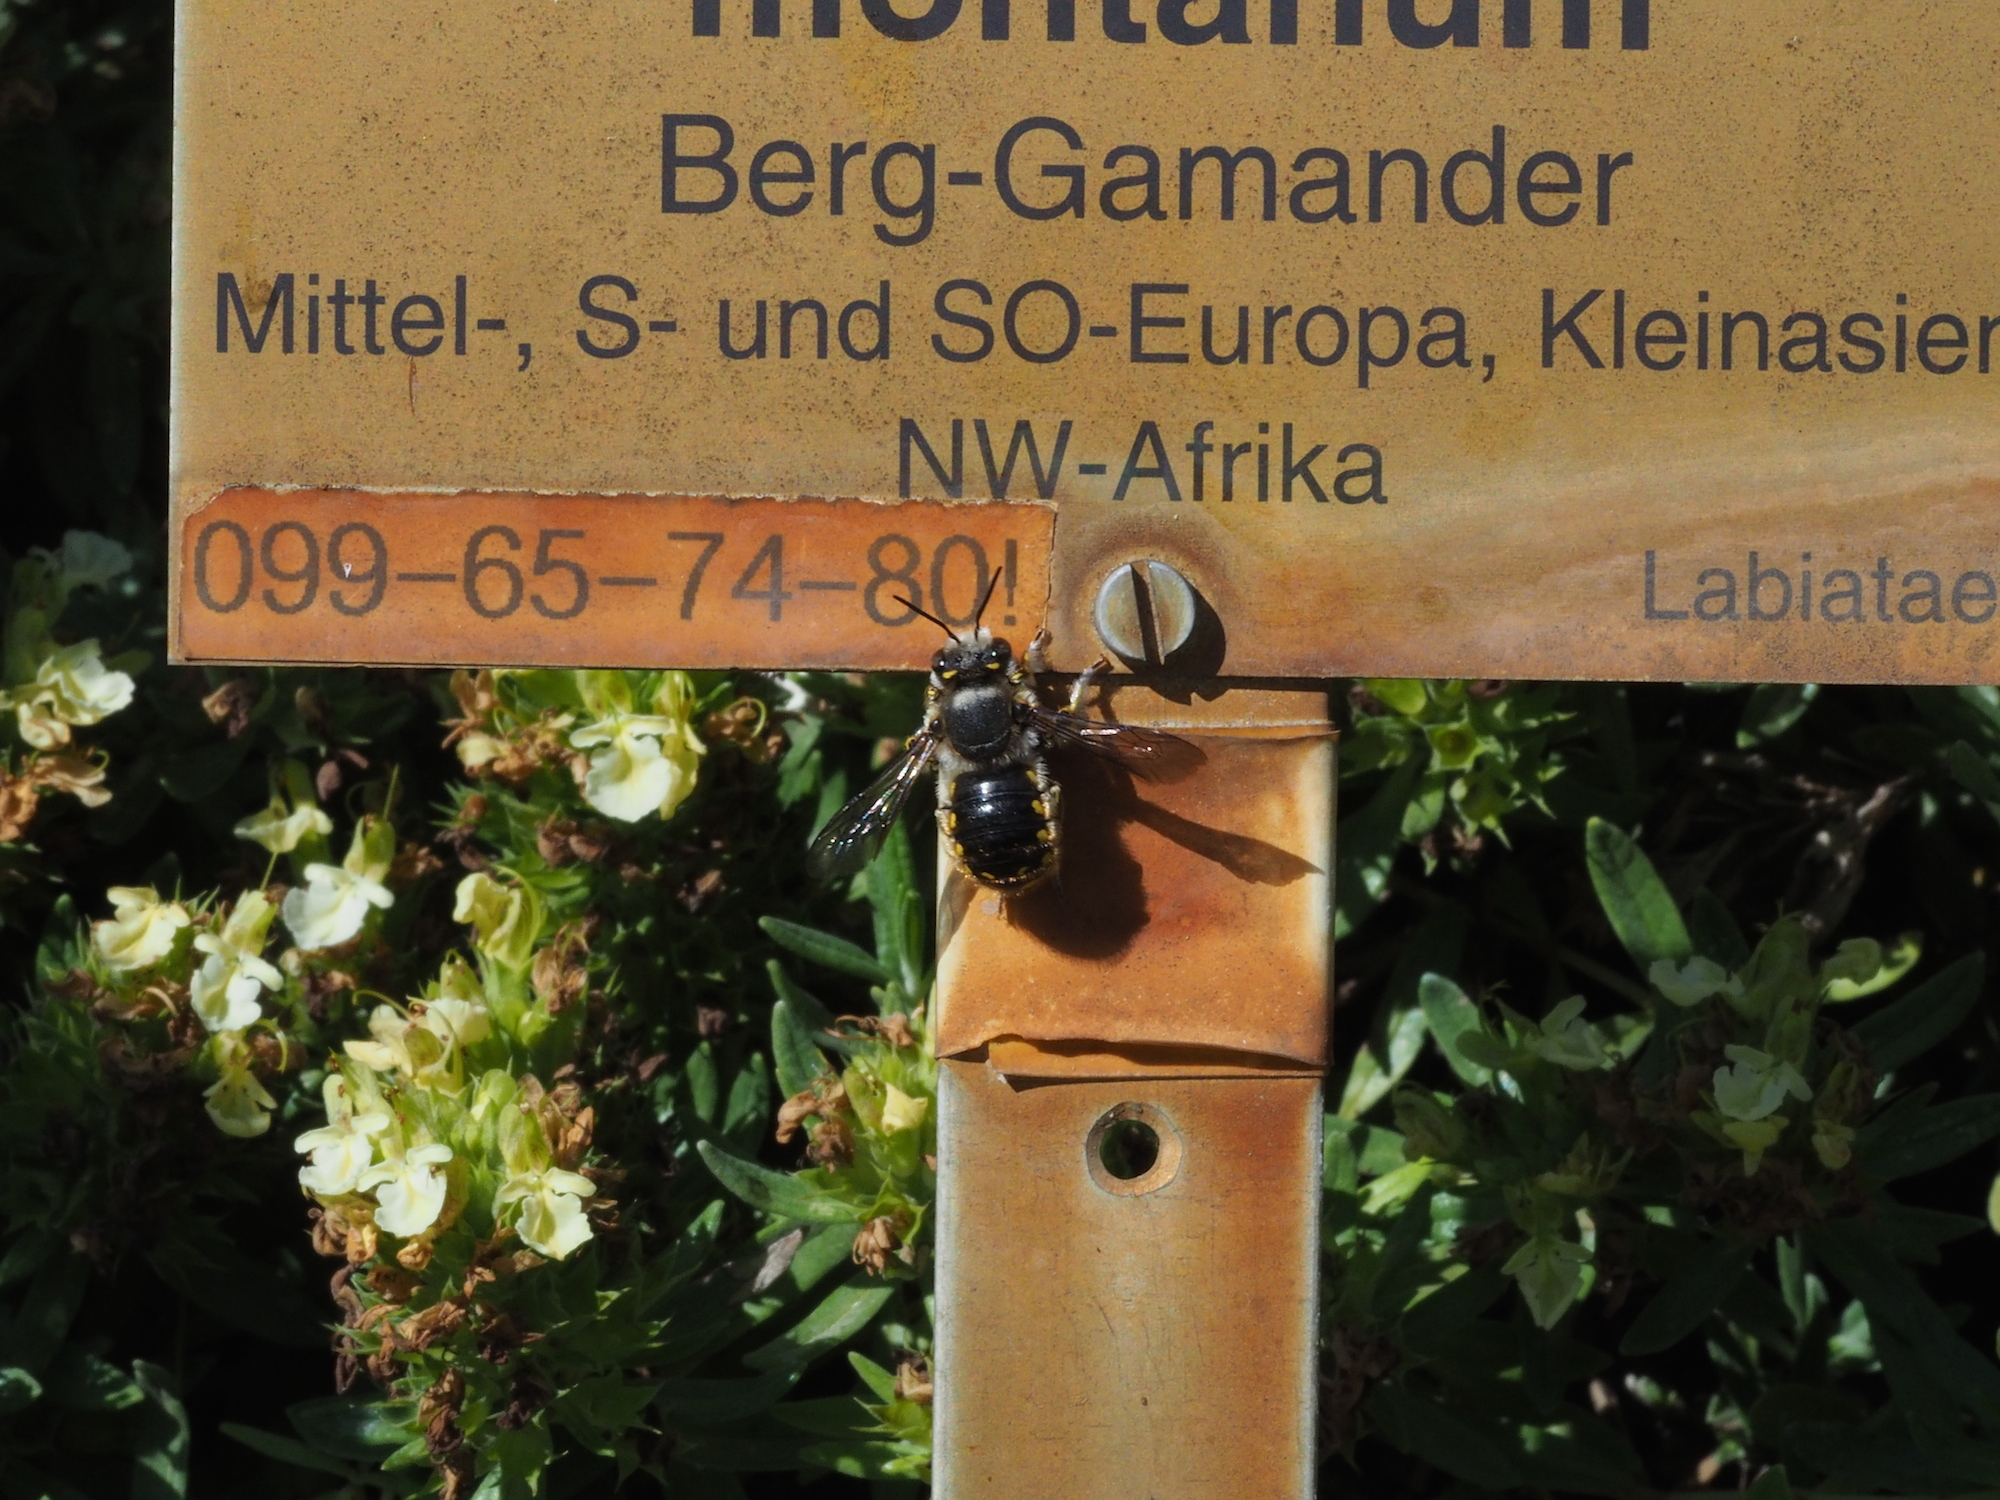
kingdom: Animalia
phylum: Arthropoda
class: Insecta
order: Hymenoptera
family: Megachilidae
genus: Anthidium
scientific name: Anthidium manicatum
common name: Wool carder bee
